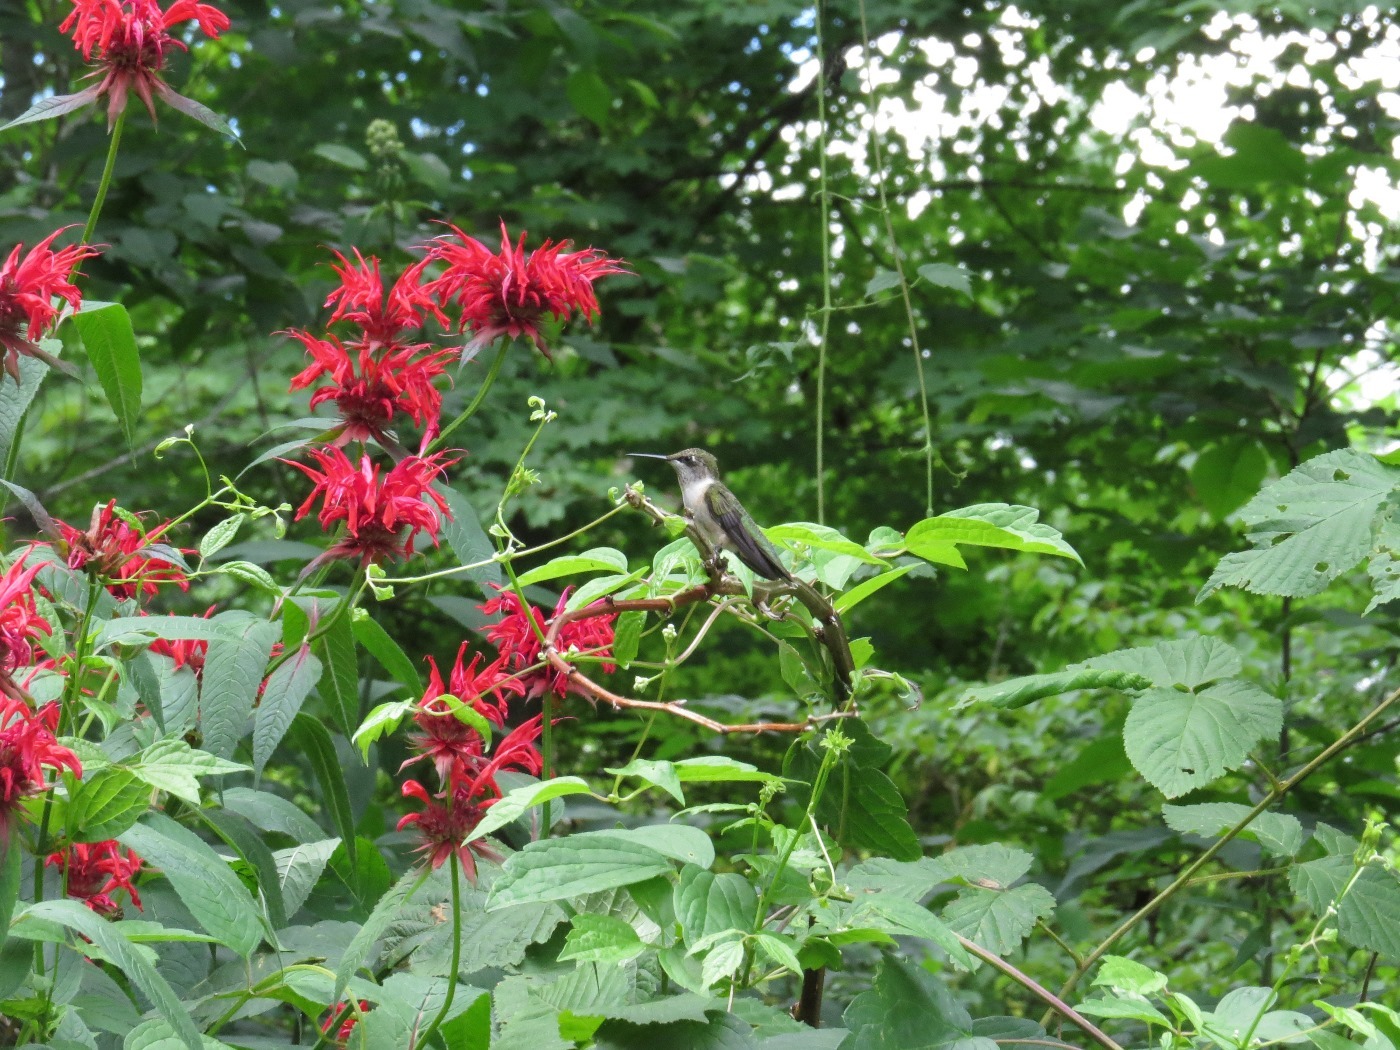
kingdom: Animalia
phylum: Chordata
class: Aves
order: Apodiformes
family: Trochilidae
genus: Archilochus
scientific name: Archilochus colubris
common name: Ruby-throated hummingbird
